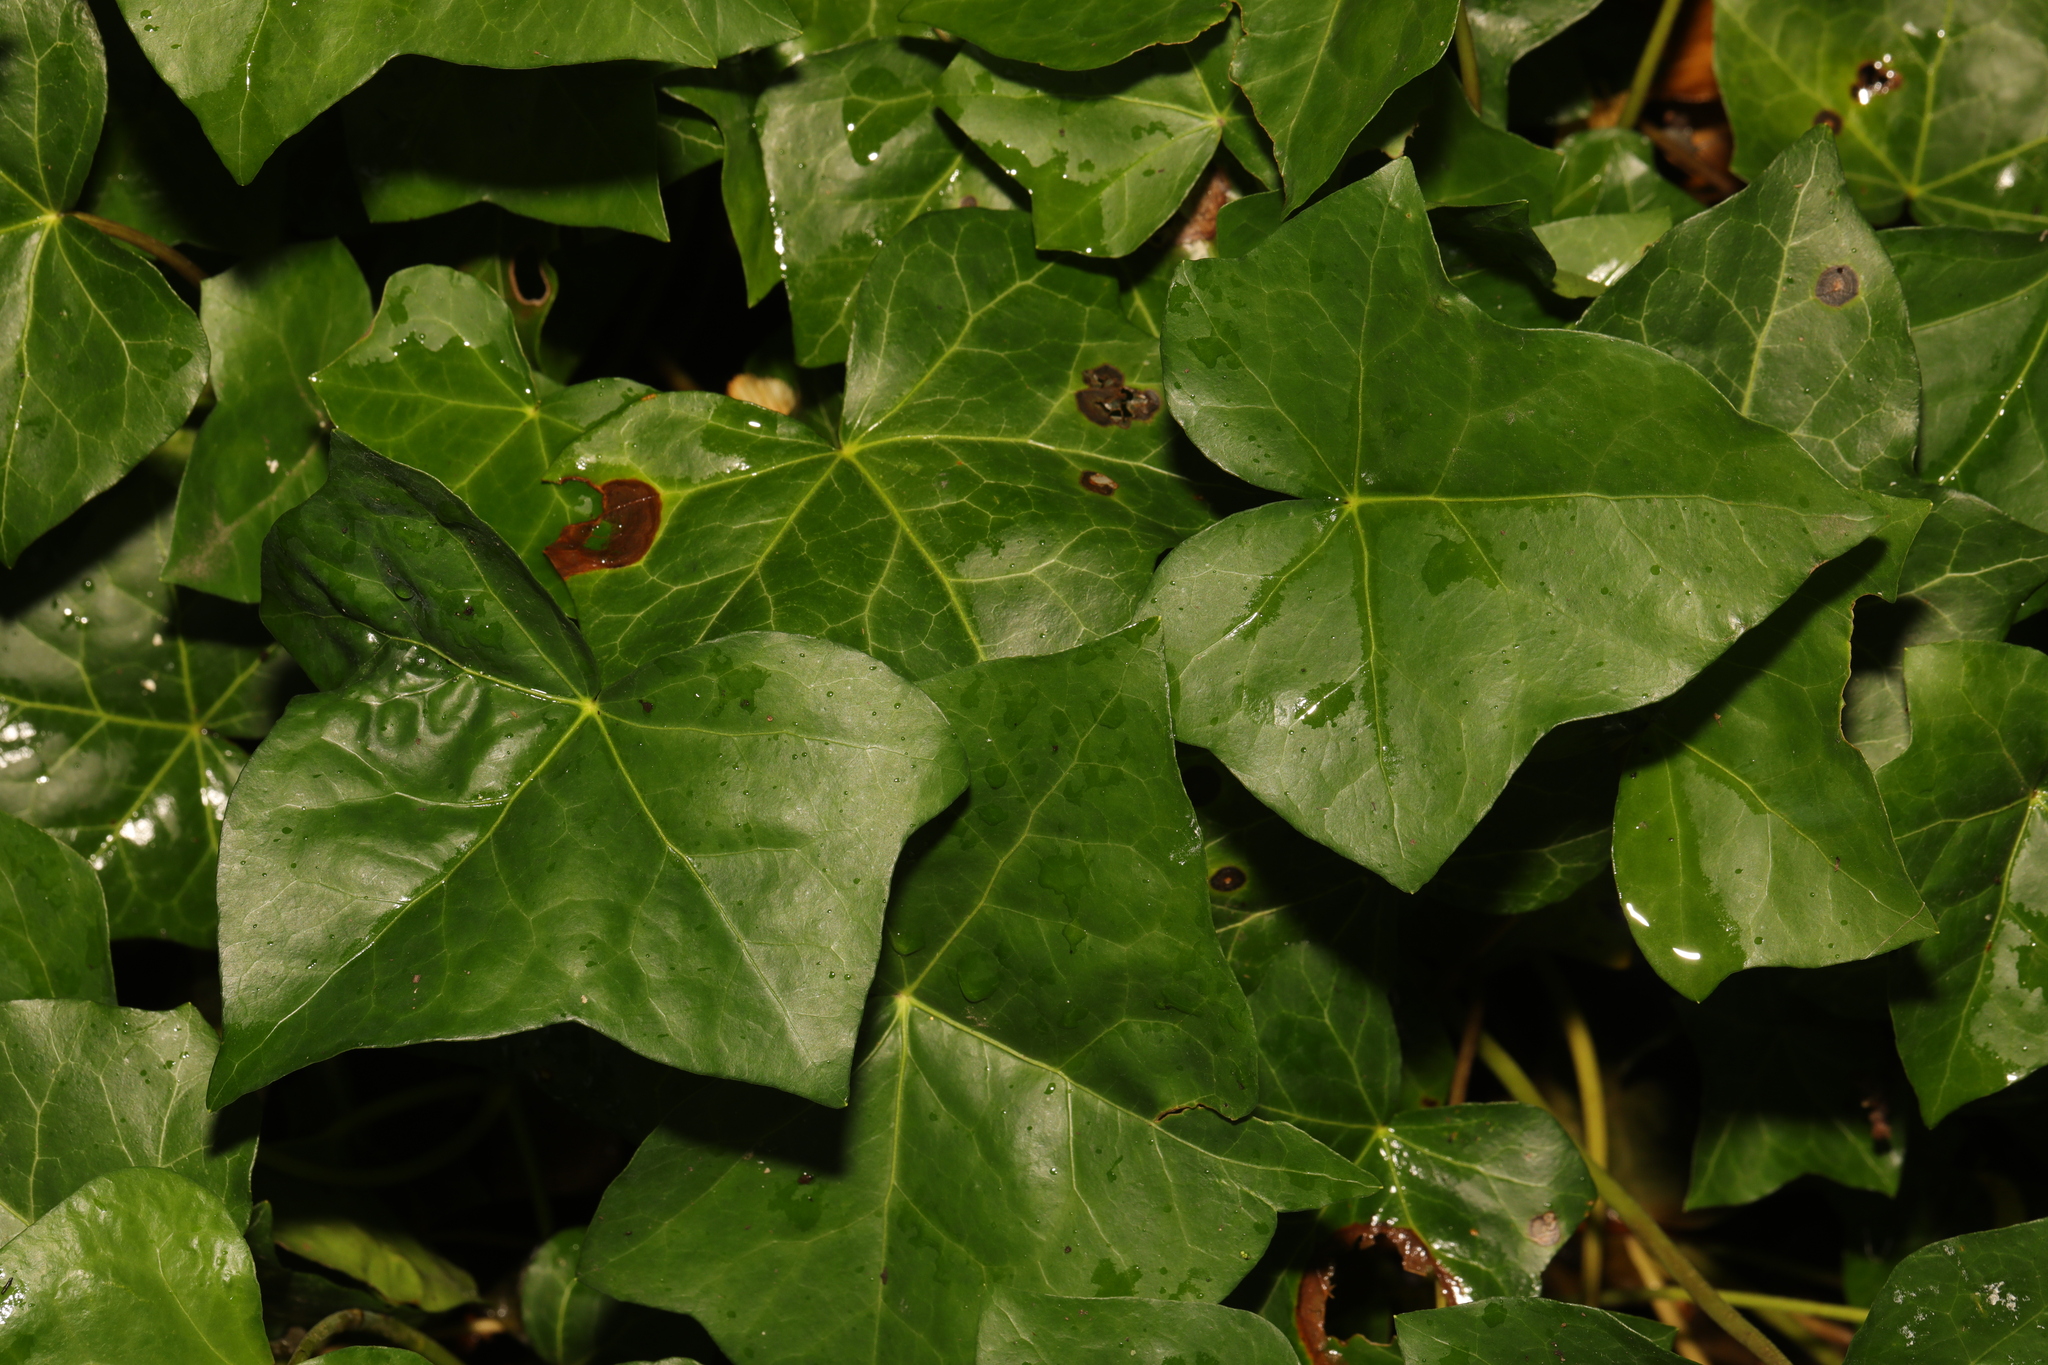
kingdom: Plantae
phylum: Tracheophyta
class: Magnoliopsida
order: Apiales
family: Araliaceae
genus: Hedera
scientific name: Hedera hibernica
